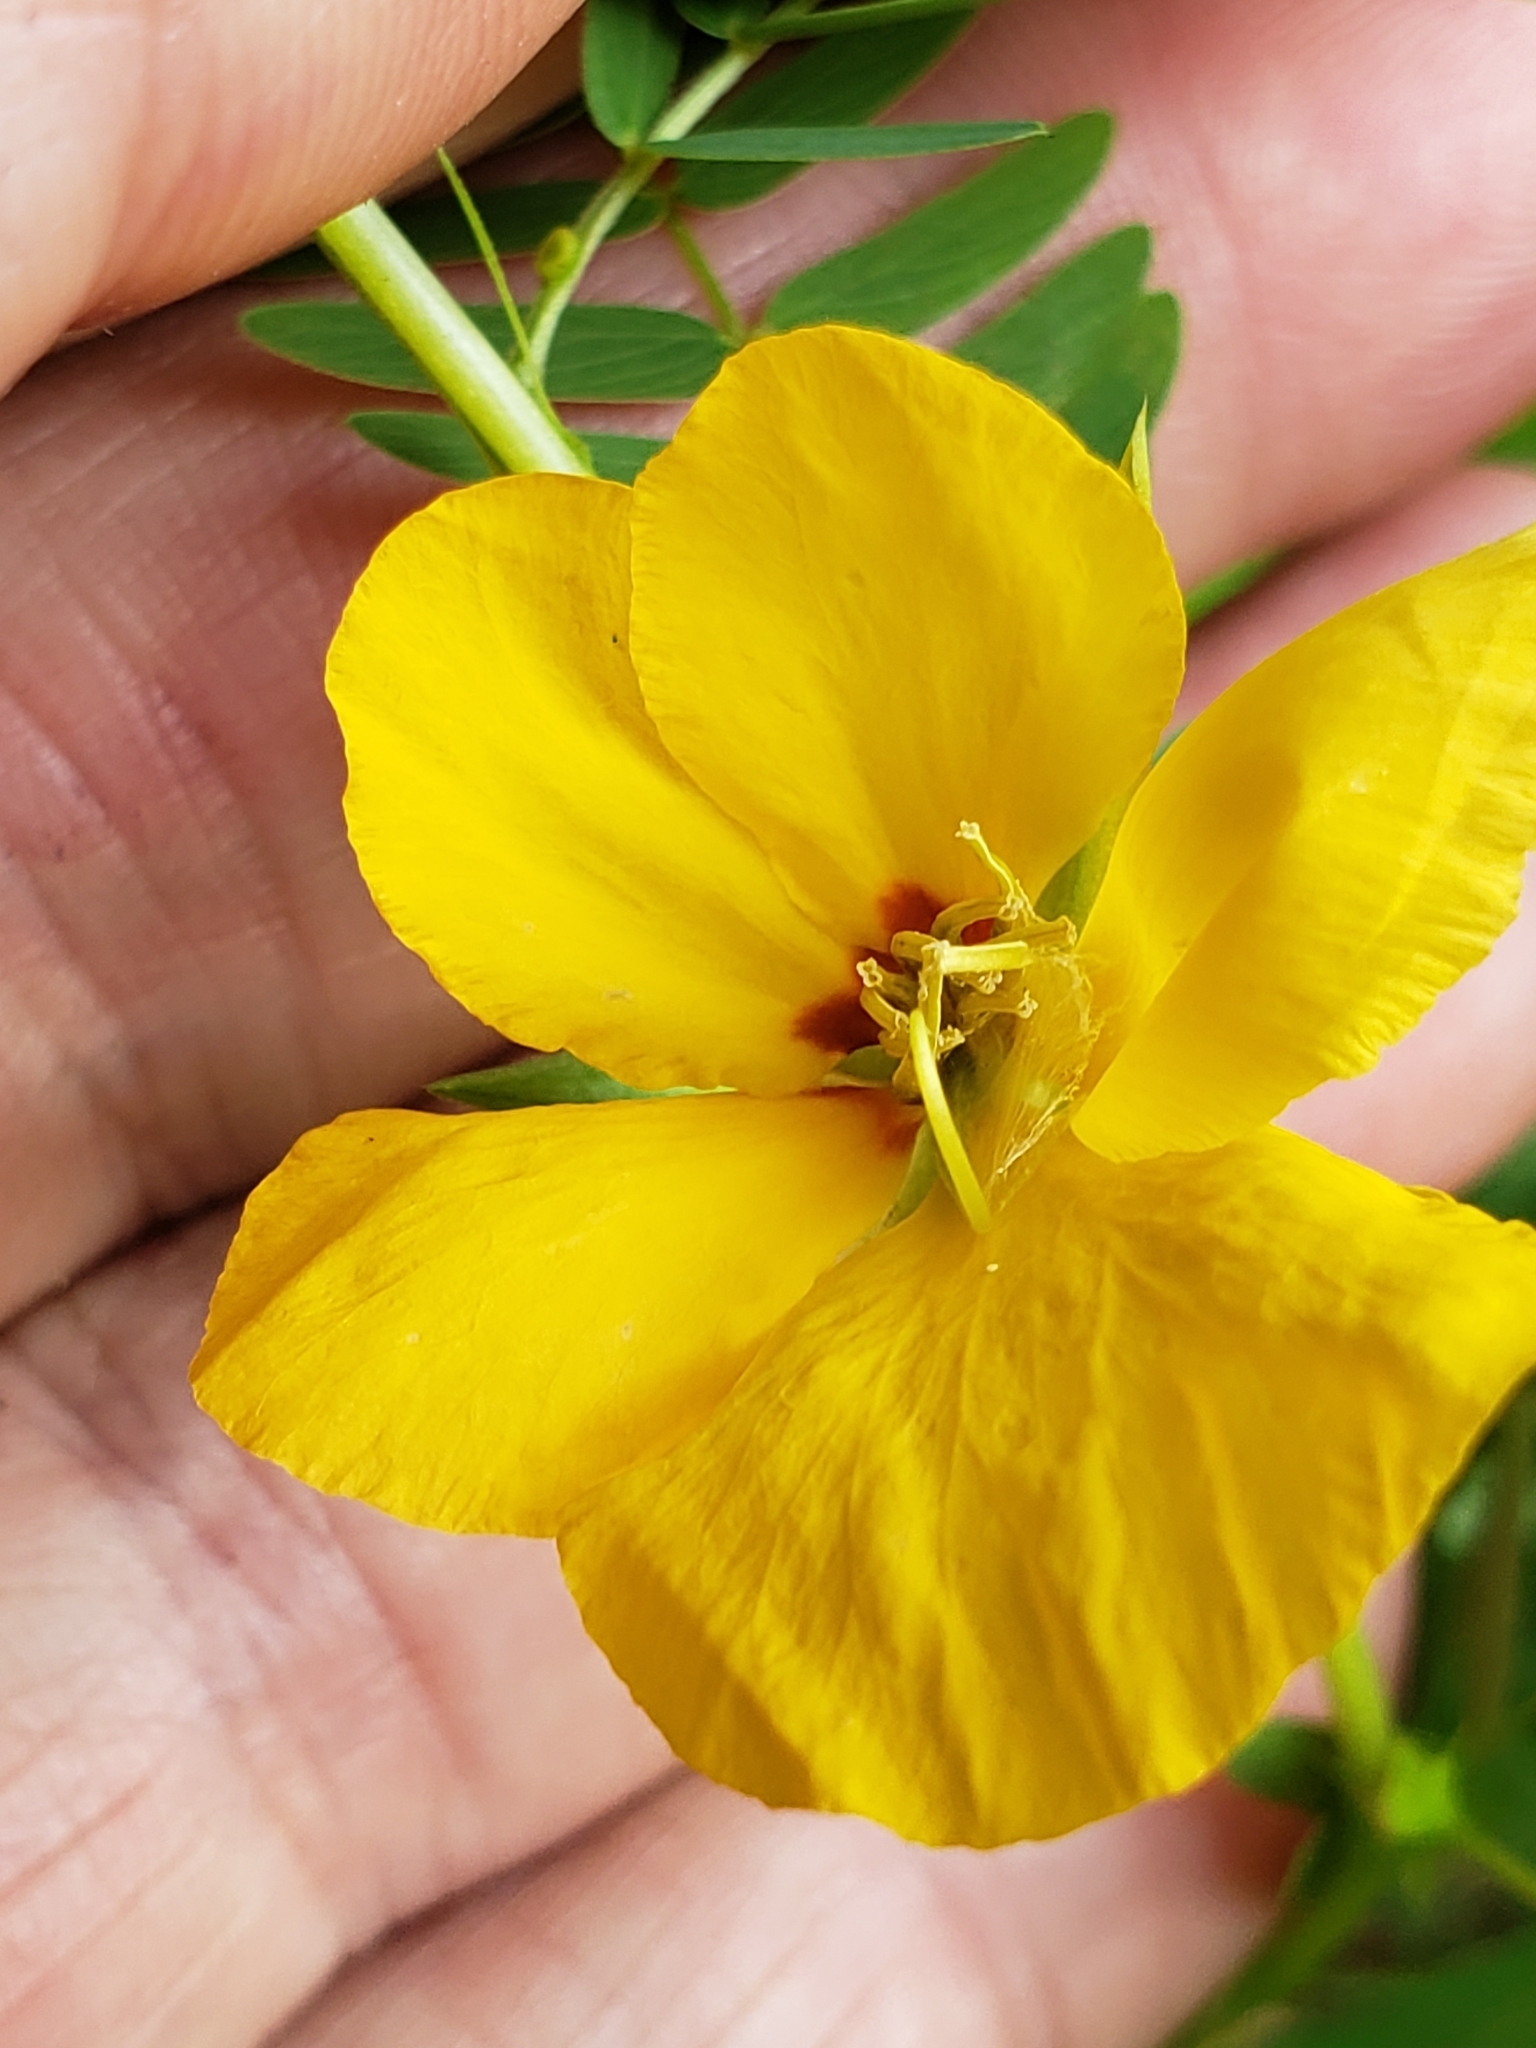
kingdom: Plantae
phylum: Tracheophyta
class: Magnoliopsida
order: Fabales
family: Fabaceae
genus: Chamaecrista
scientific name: Chamaecrista fasciculata
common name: Golden cassia
